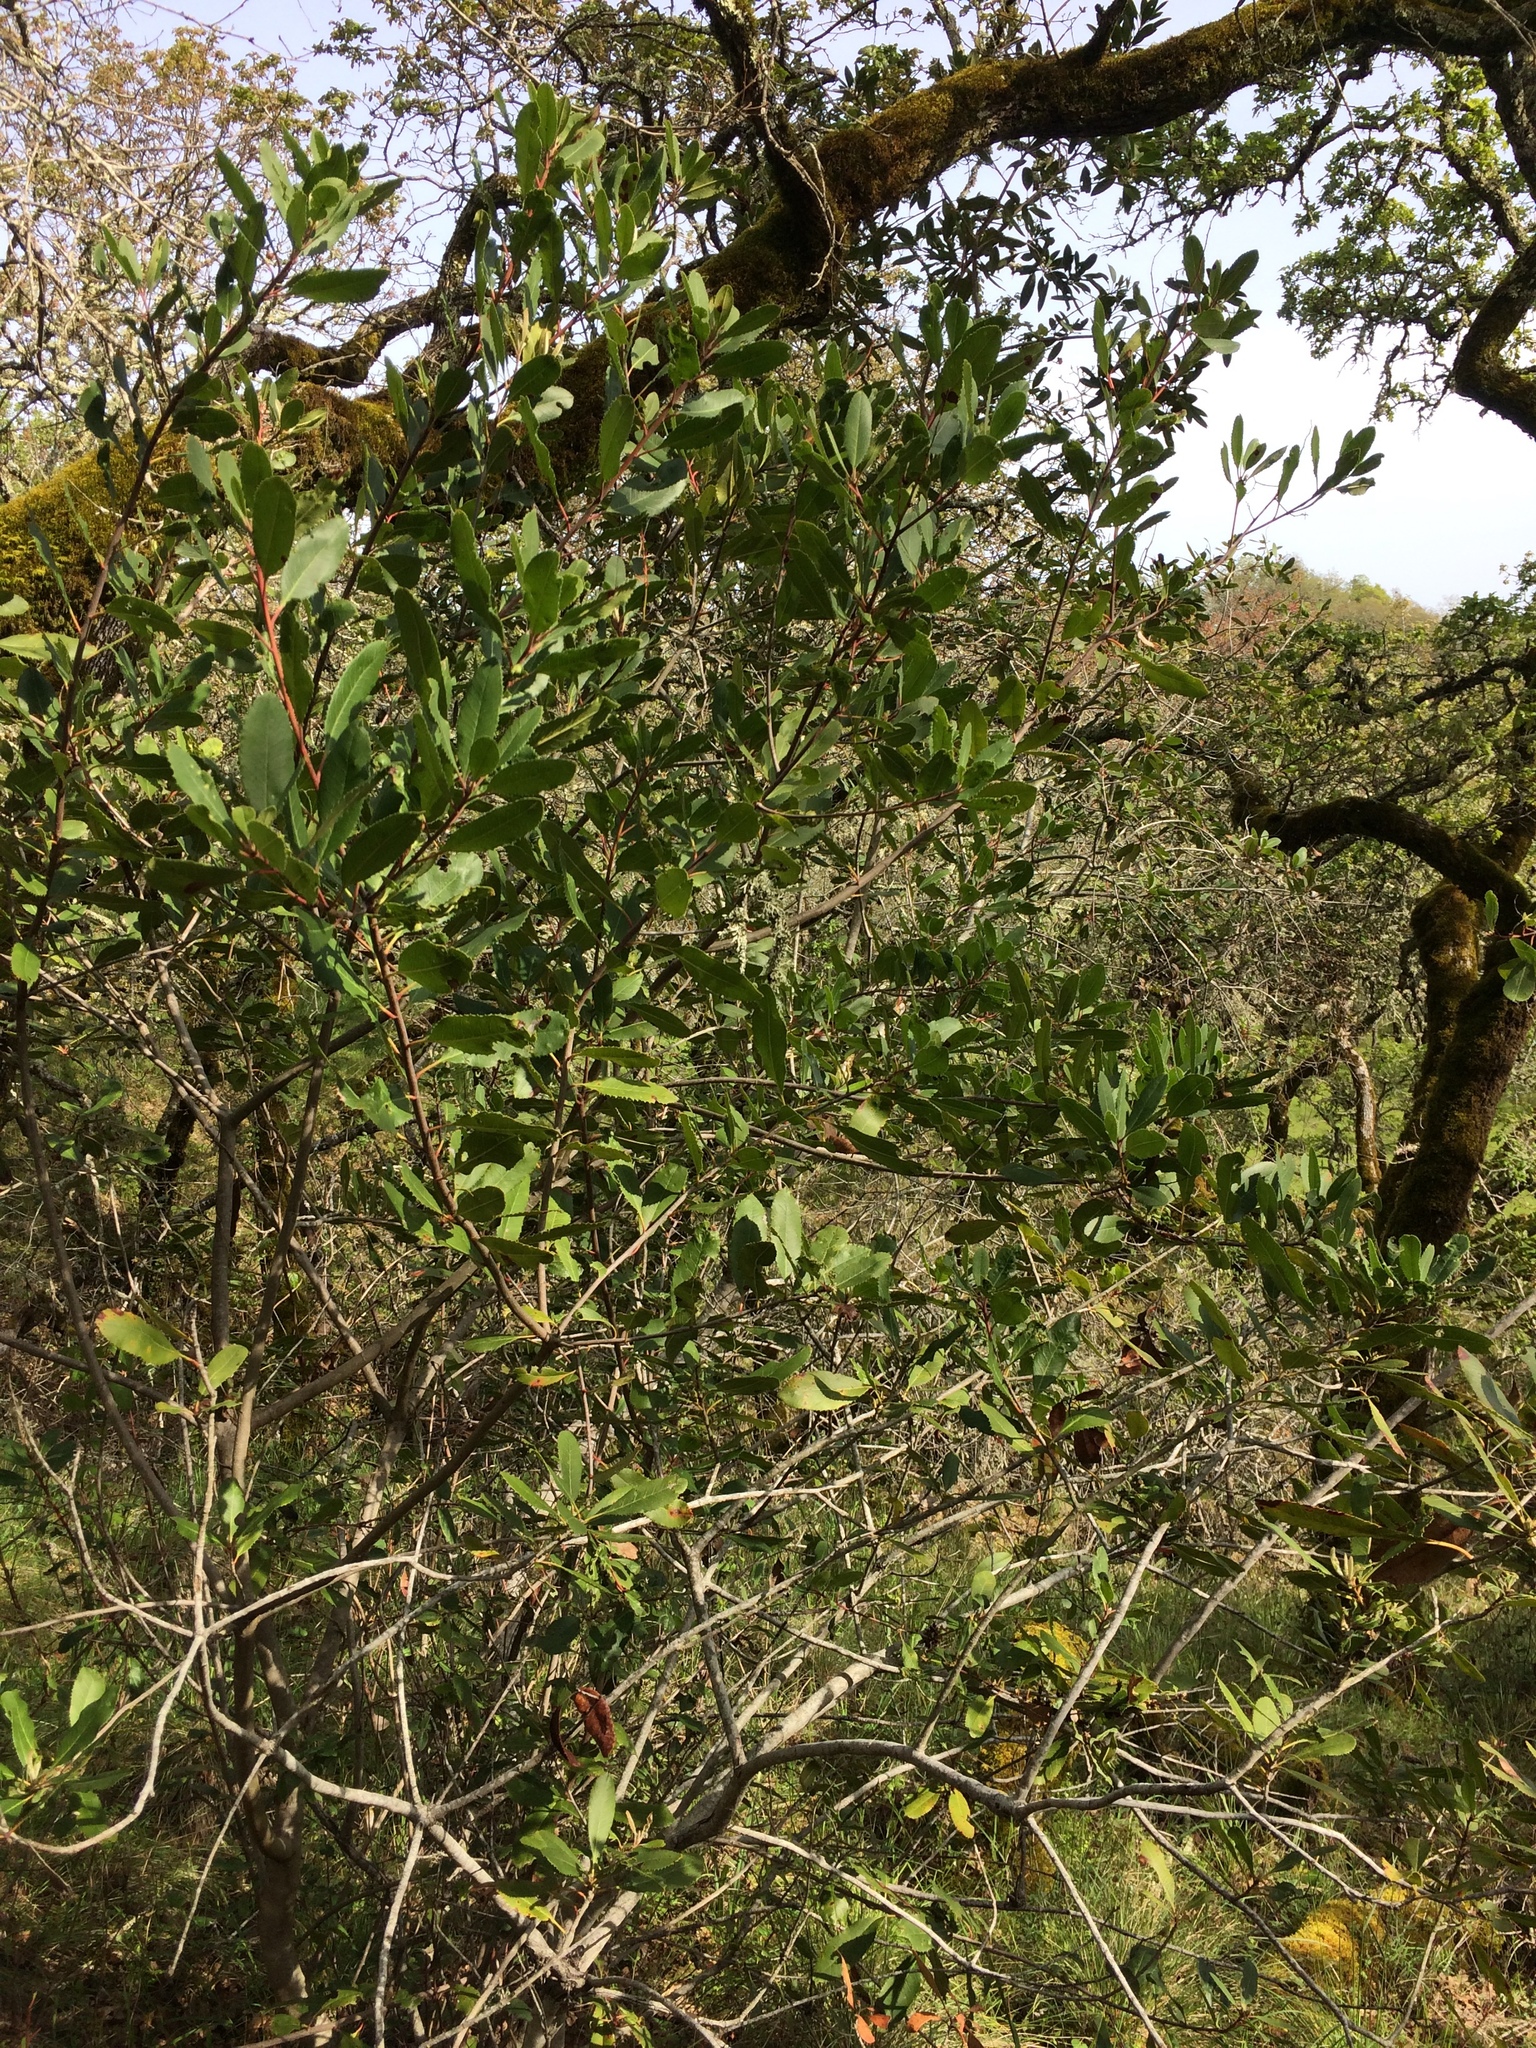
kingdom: Plantae
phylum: Tracheophyta
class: Magnoliopsida
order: Rosales
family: Rosaceae
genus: Heteromeles
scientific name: Heteromeles arbutifolia
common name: California-holly
